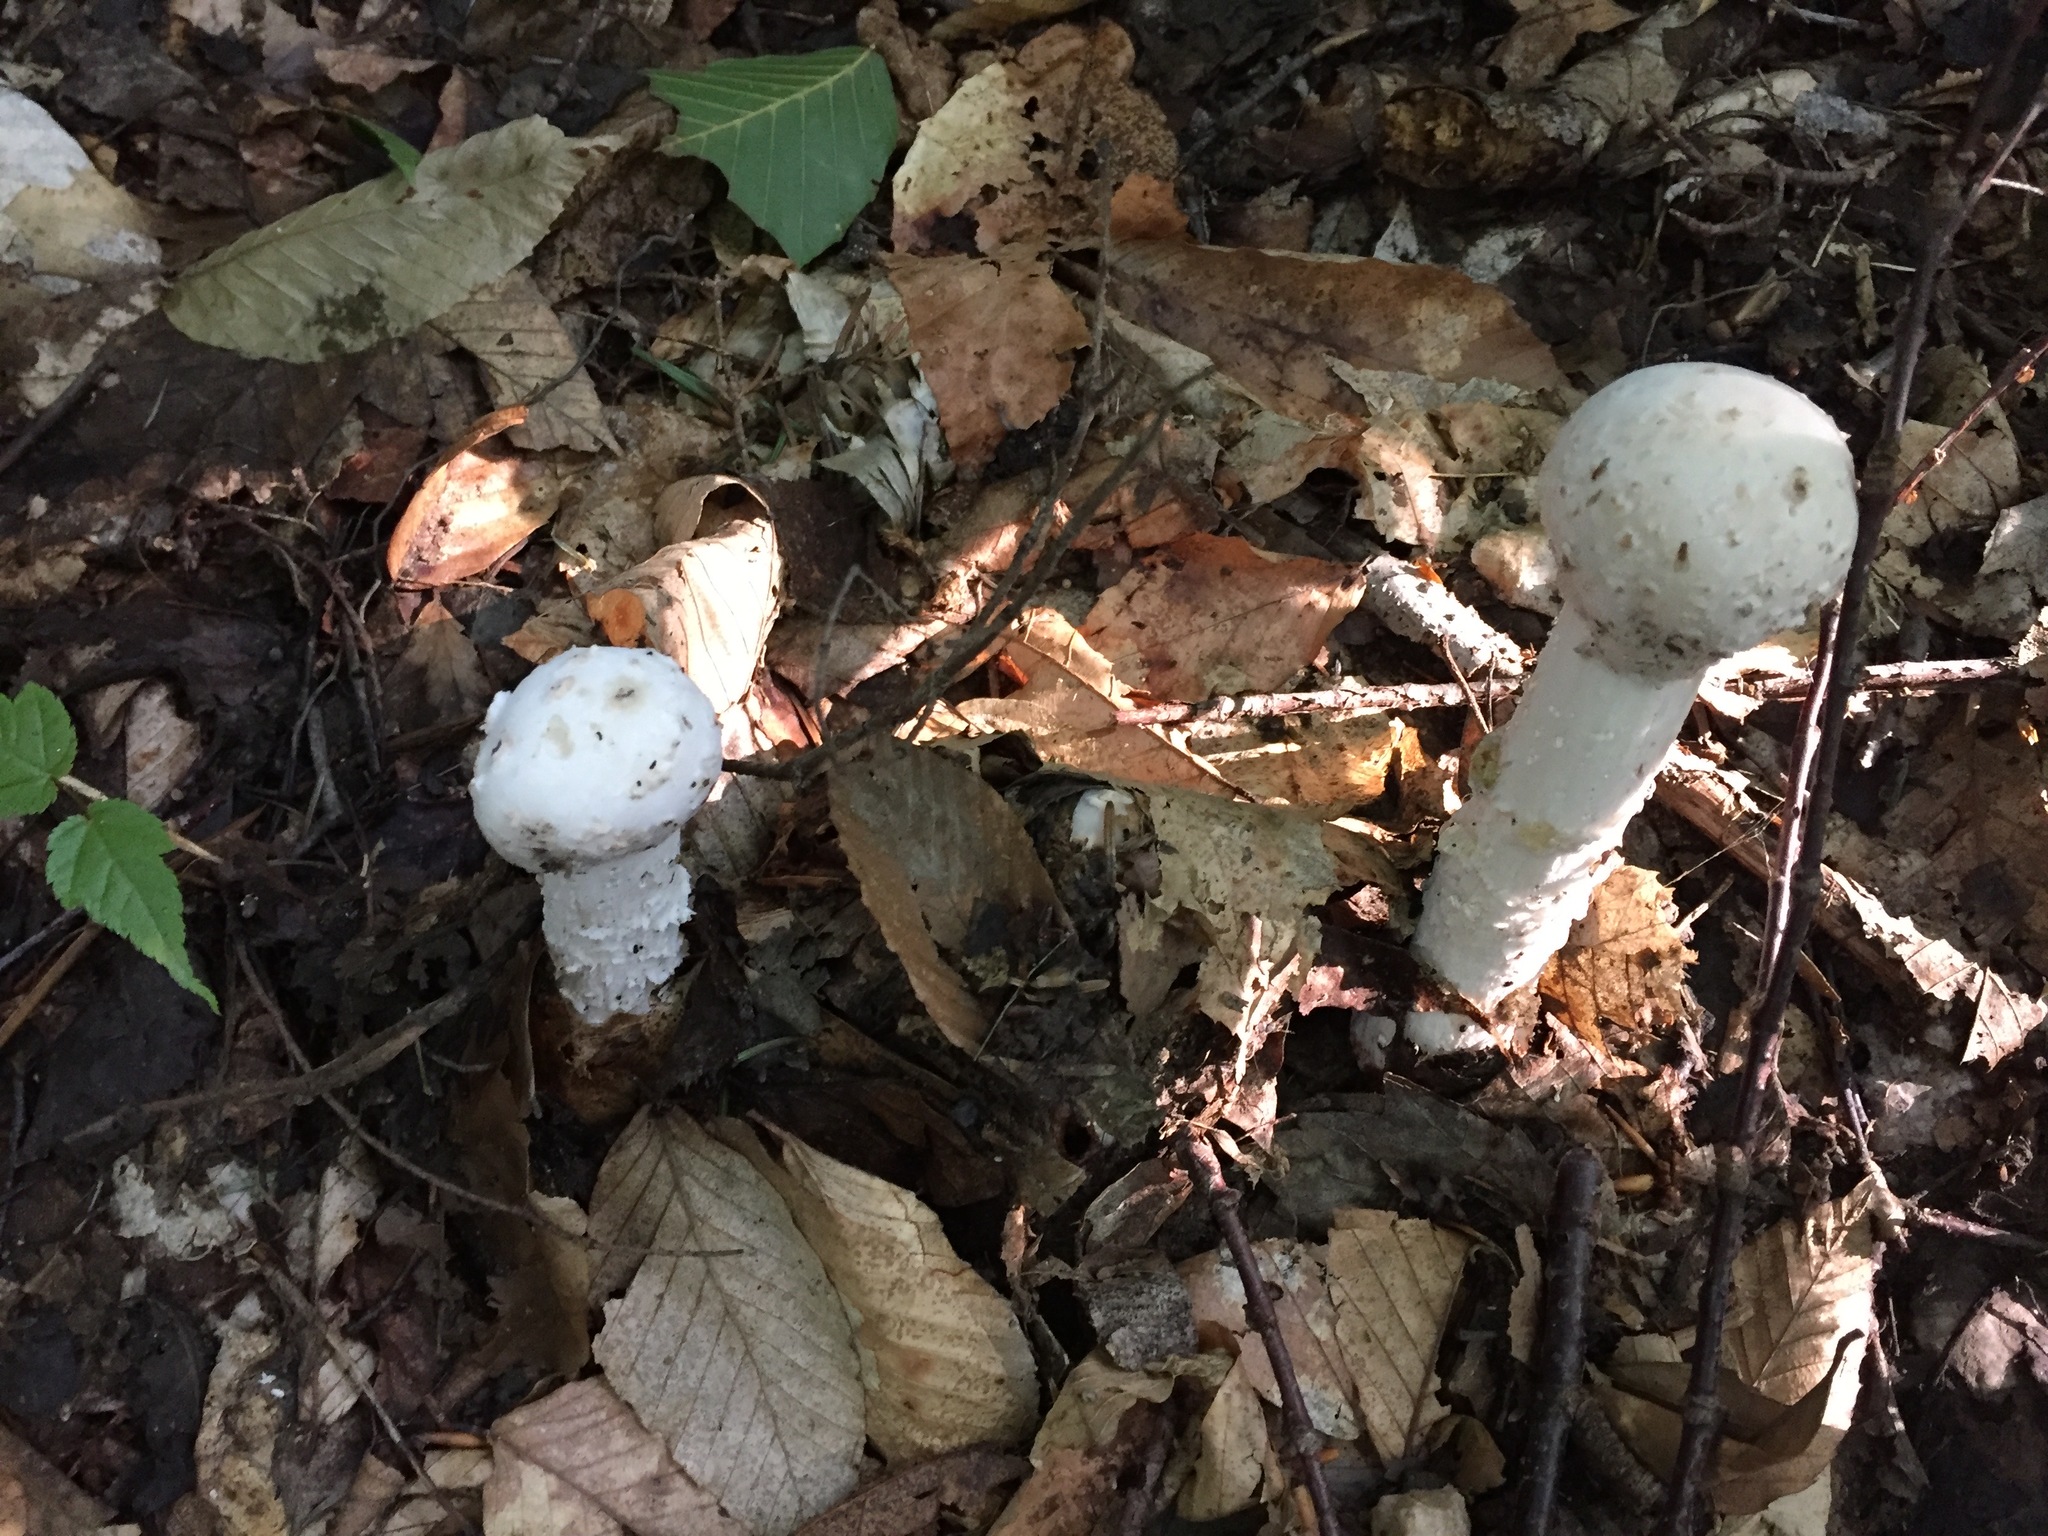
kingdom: Fungi
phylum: Ascomycota
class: Sordariomycetes
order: Hypocreales
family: Hypocreaceae
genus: Hypomyces
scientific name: Hypomyces hyalinus
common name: Amanita mold
